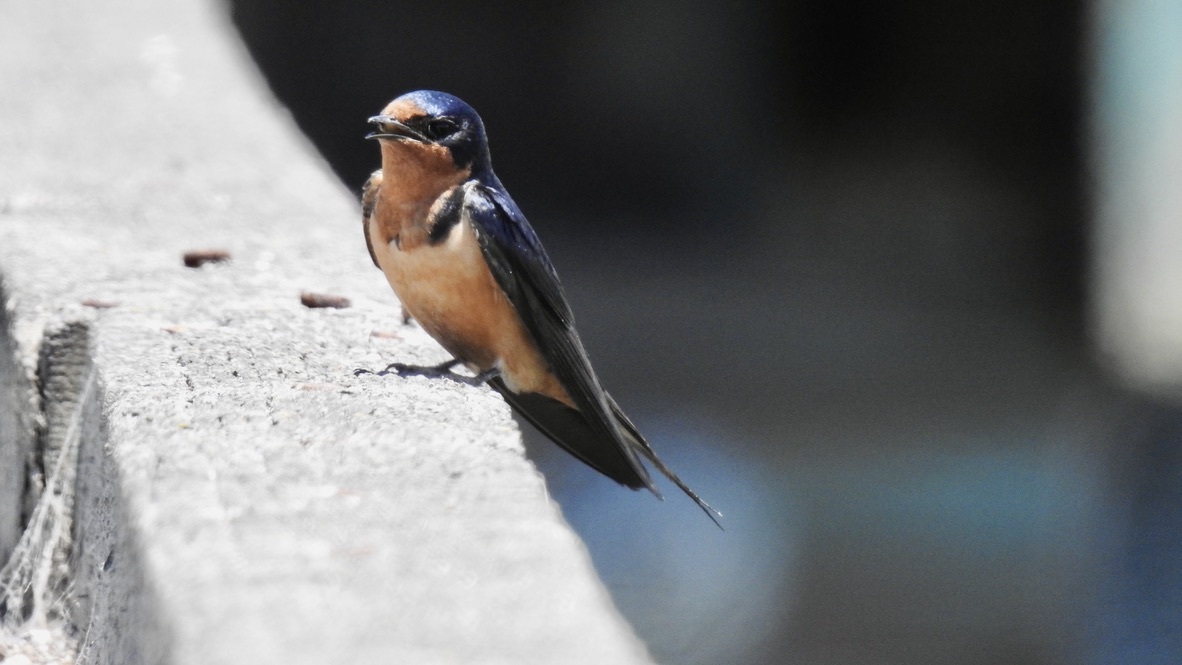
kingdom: Animalia
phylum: Chordata
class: Aves
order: Passeriformes
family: Hirundinidae
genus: Hirundo
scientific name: Hirundo rustica
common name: Barn swallow
